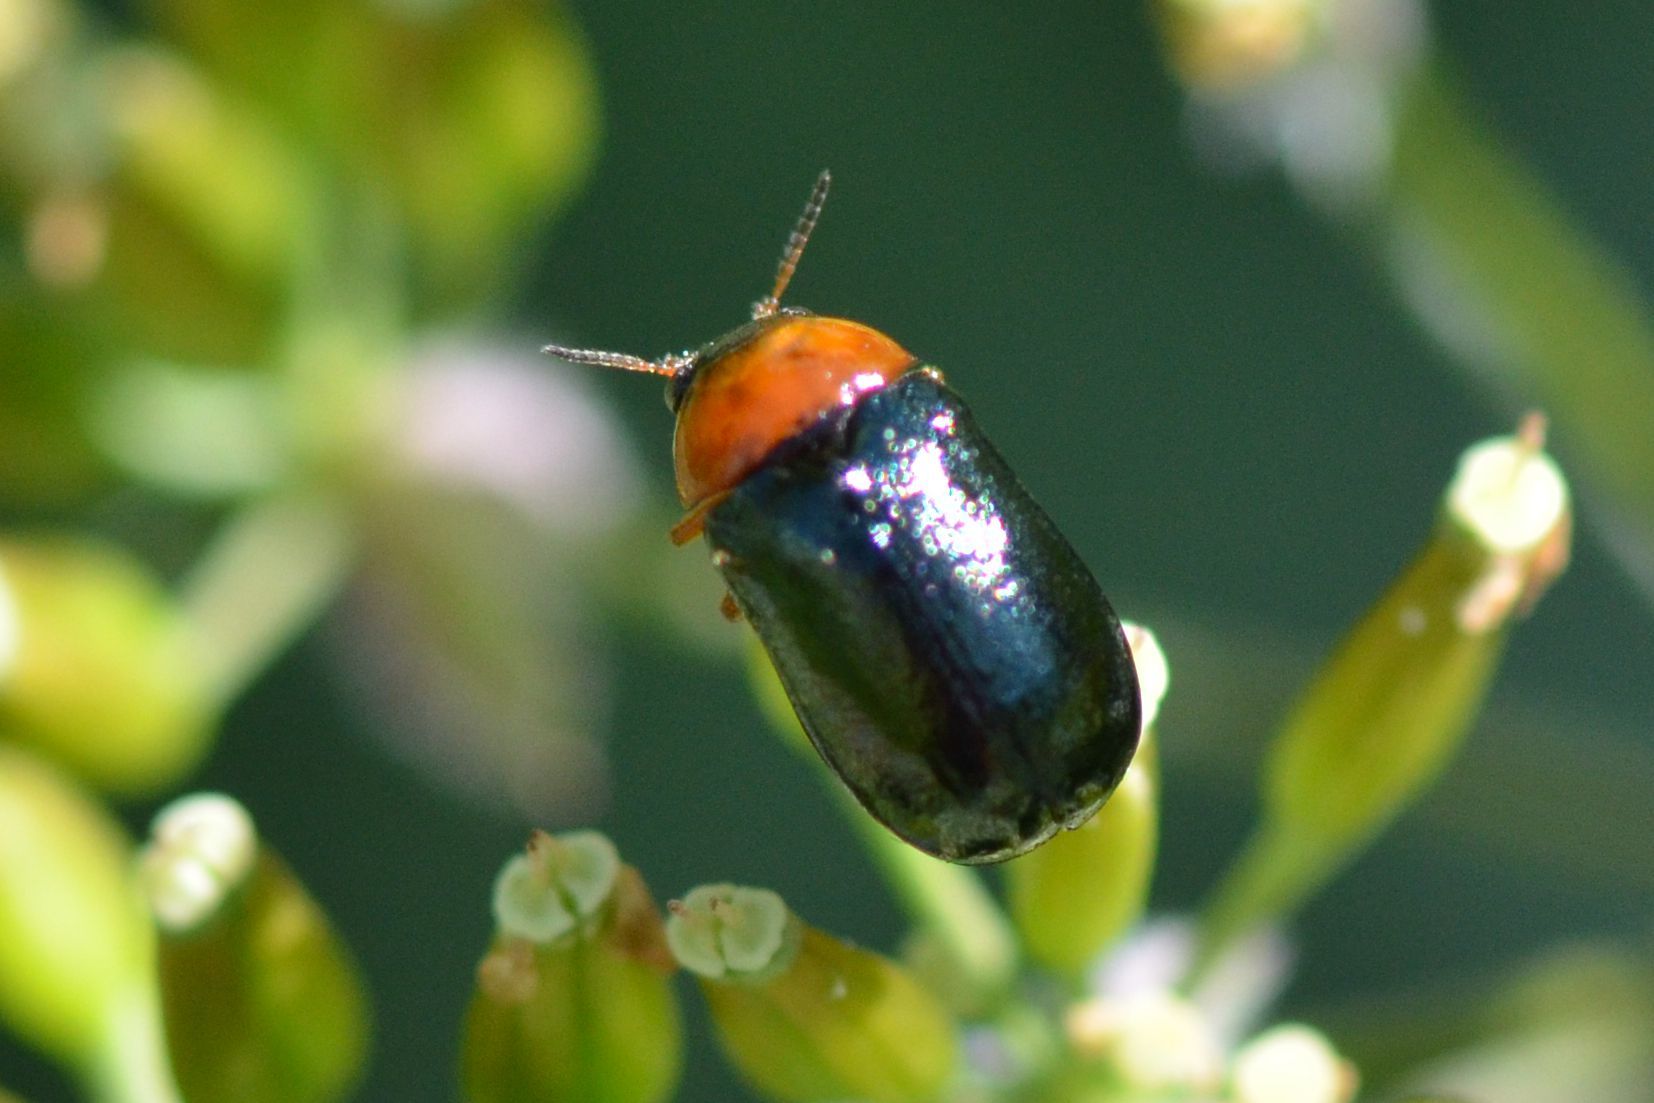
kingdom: Animalia
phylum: Arthropoda
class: Insecta
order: Coleoptera
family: Chrysomelidae
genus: Smaragdina
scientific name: Smaragdina salicina
